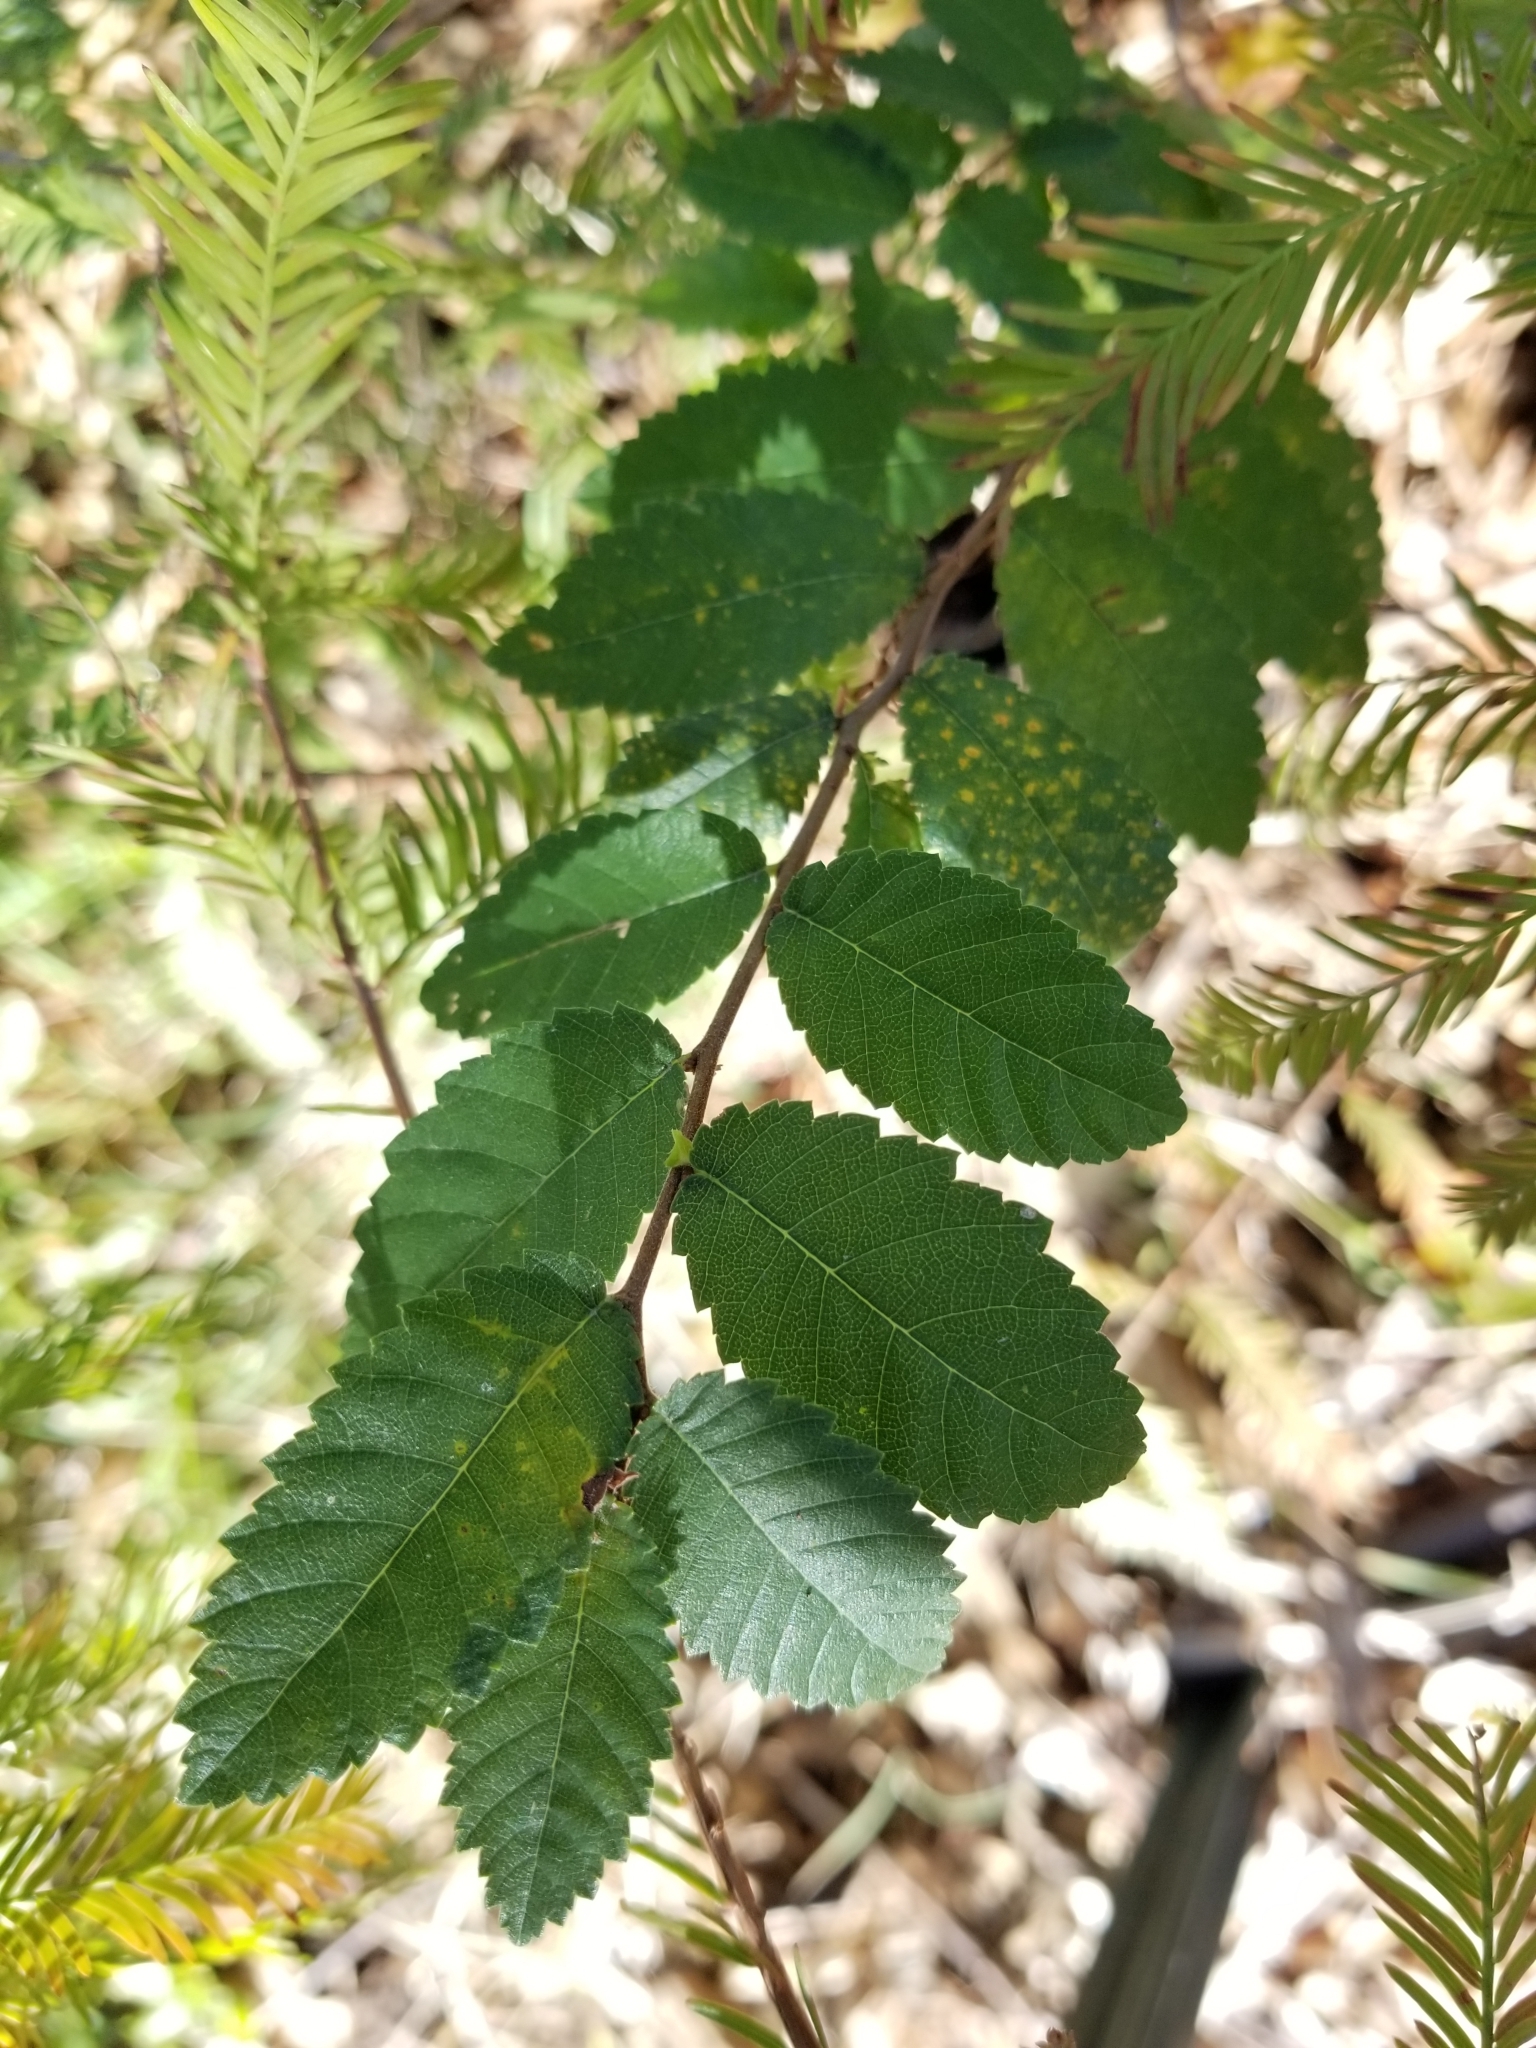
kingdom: Plantae
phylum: Tracheophyta
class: Magnoliopsida
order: Rosales
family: Ulmaceae
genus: Ulmus
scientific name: Ulmus crassifolia
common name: Basket elm
